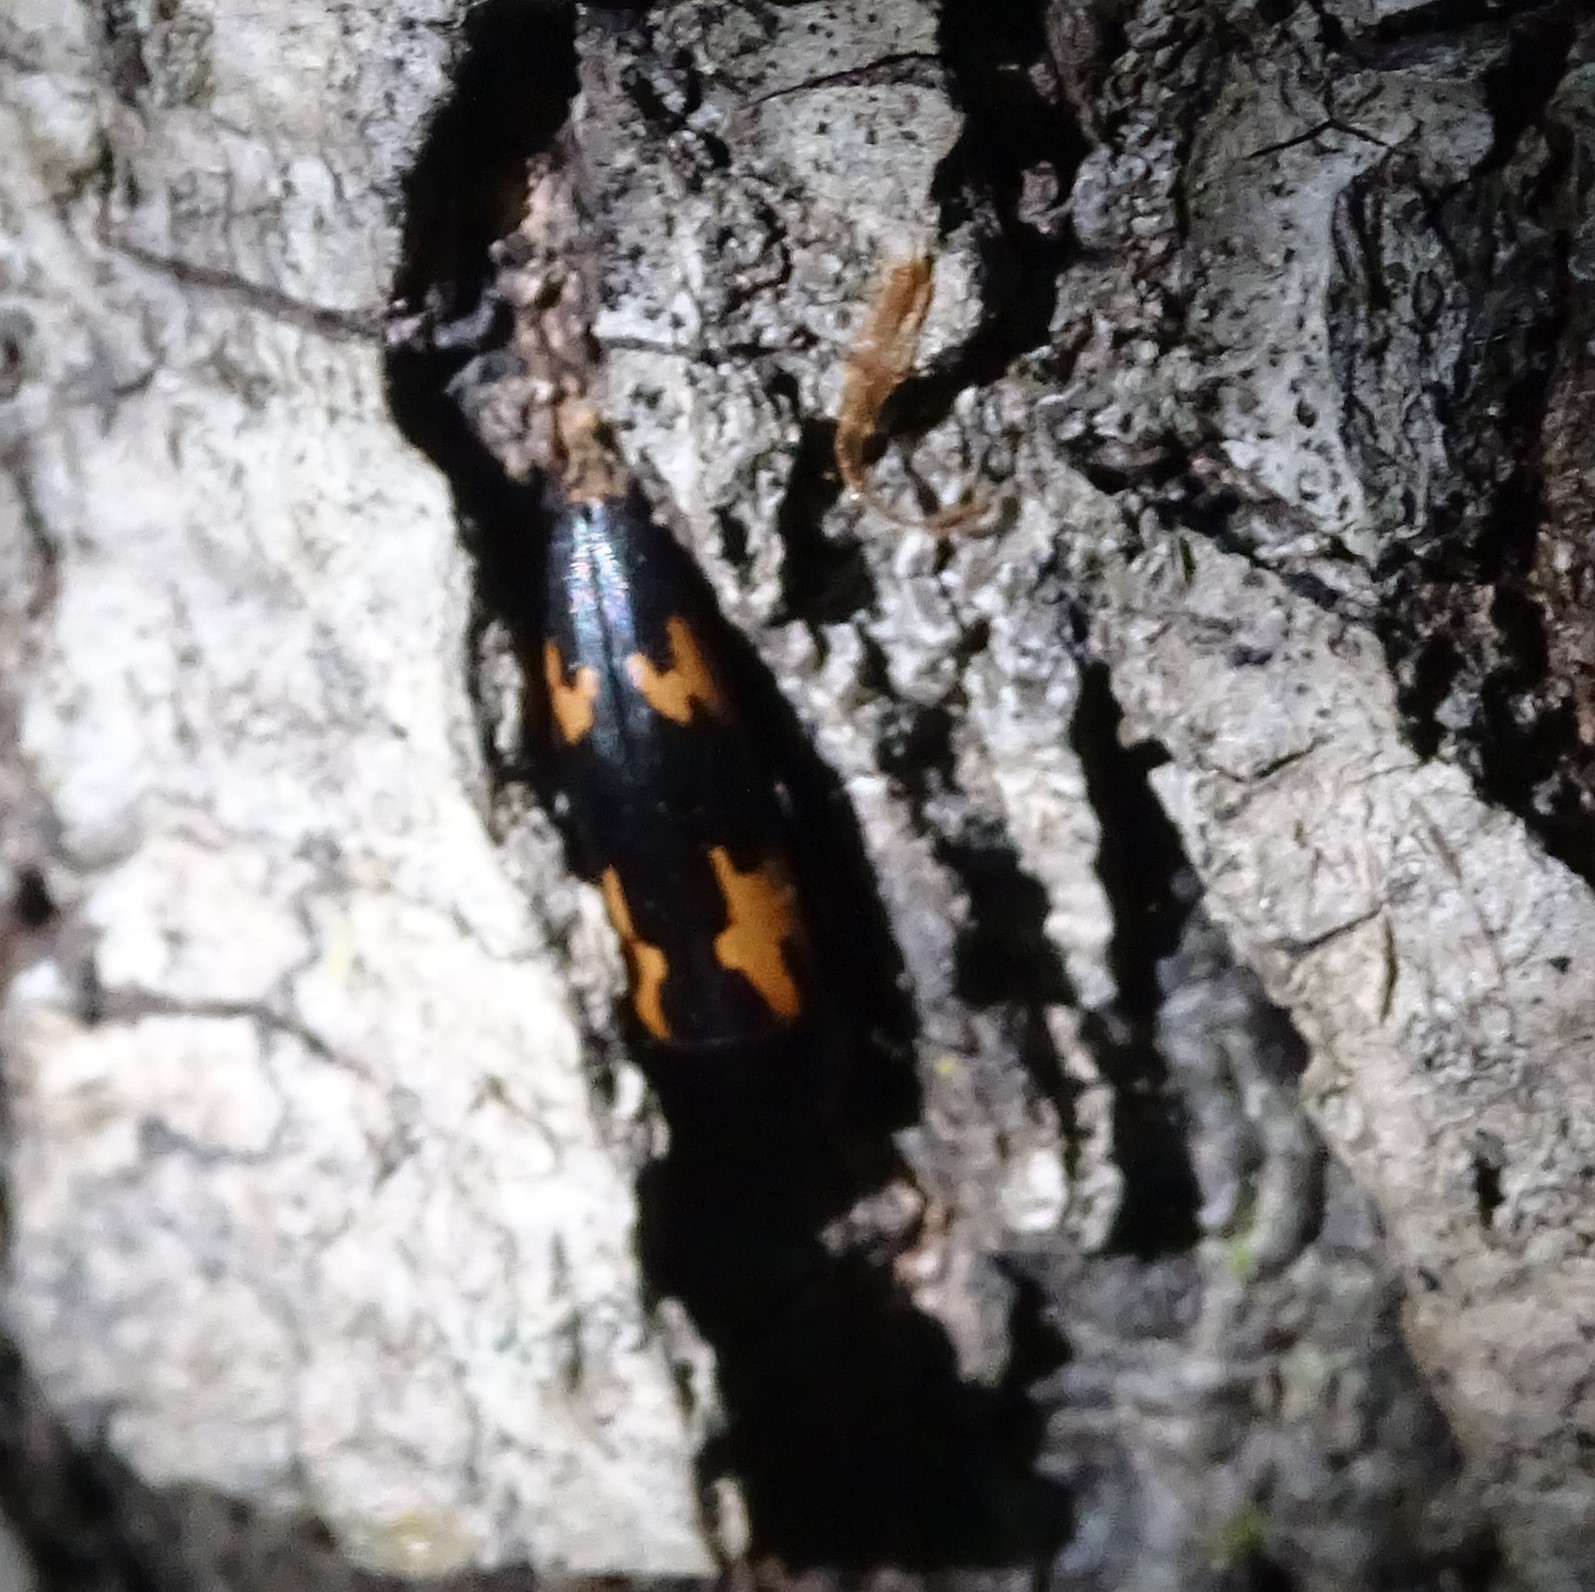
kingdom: Animalia
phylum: Arthropoda
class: Insecta
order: Coleoptera
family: Melandryidae
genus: Dircaea
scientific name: Dircaea liturata
